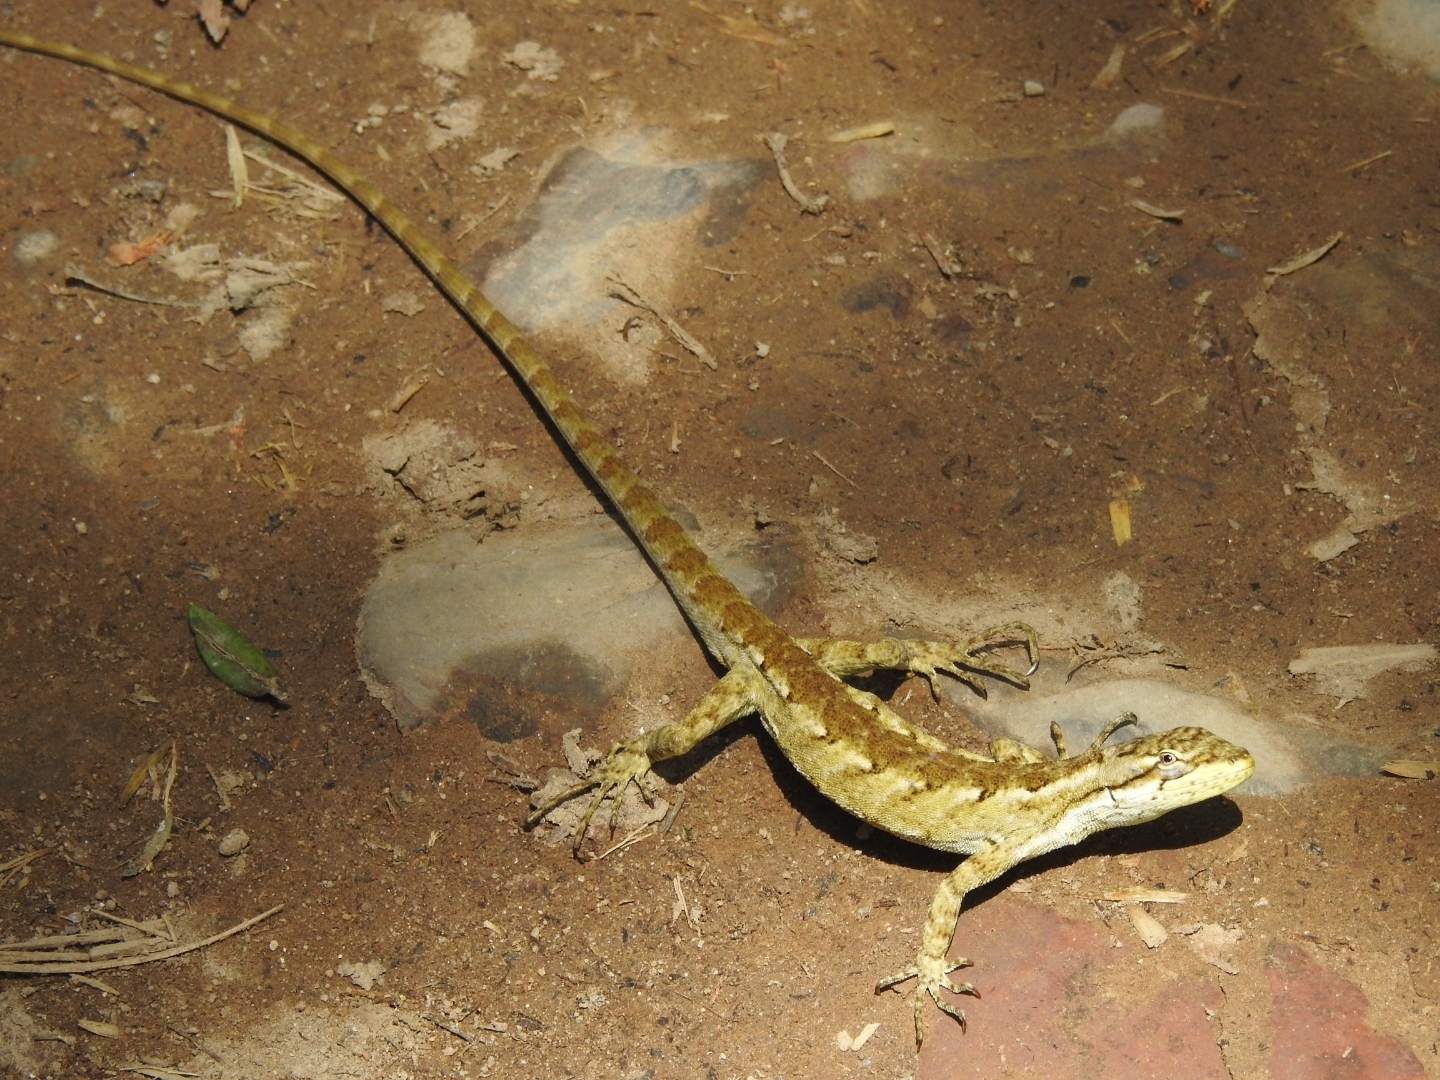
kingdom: Animalia
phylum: Chordata
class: Squamata
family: Leiosauridae
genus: Urostrophus
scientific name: Urostrophus
